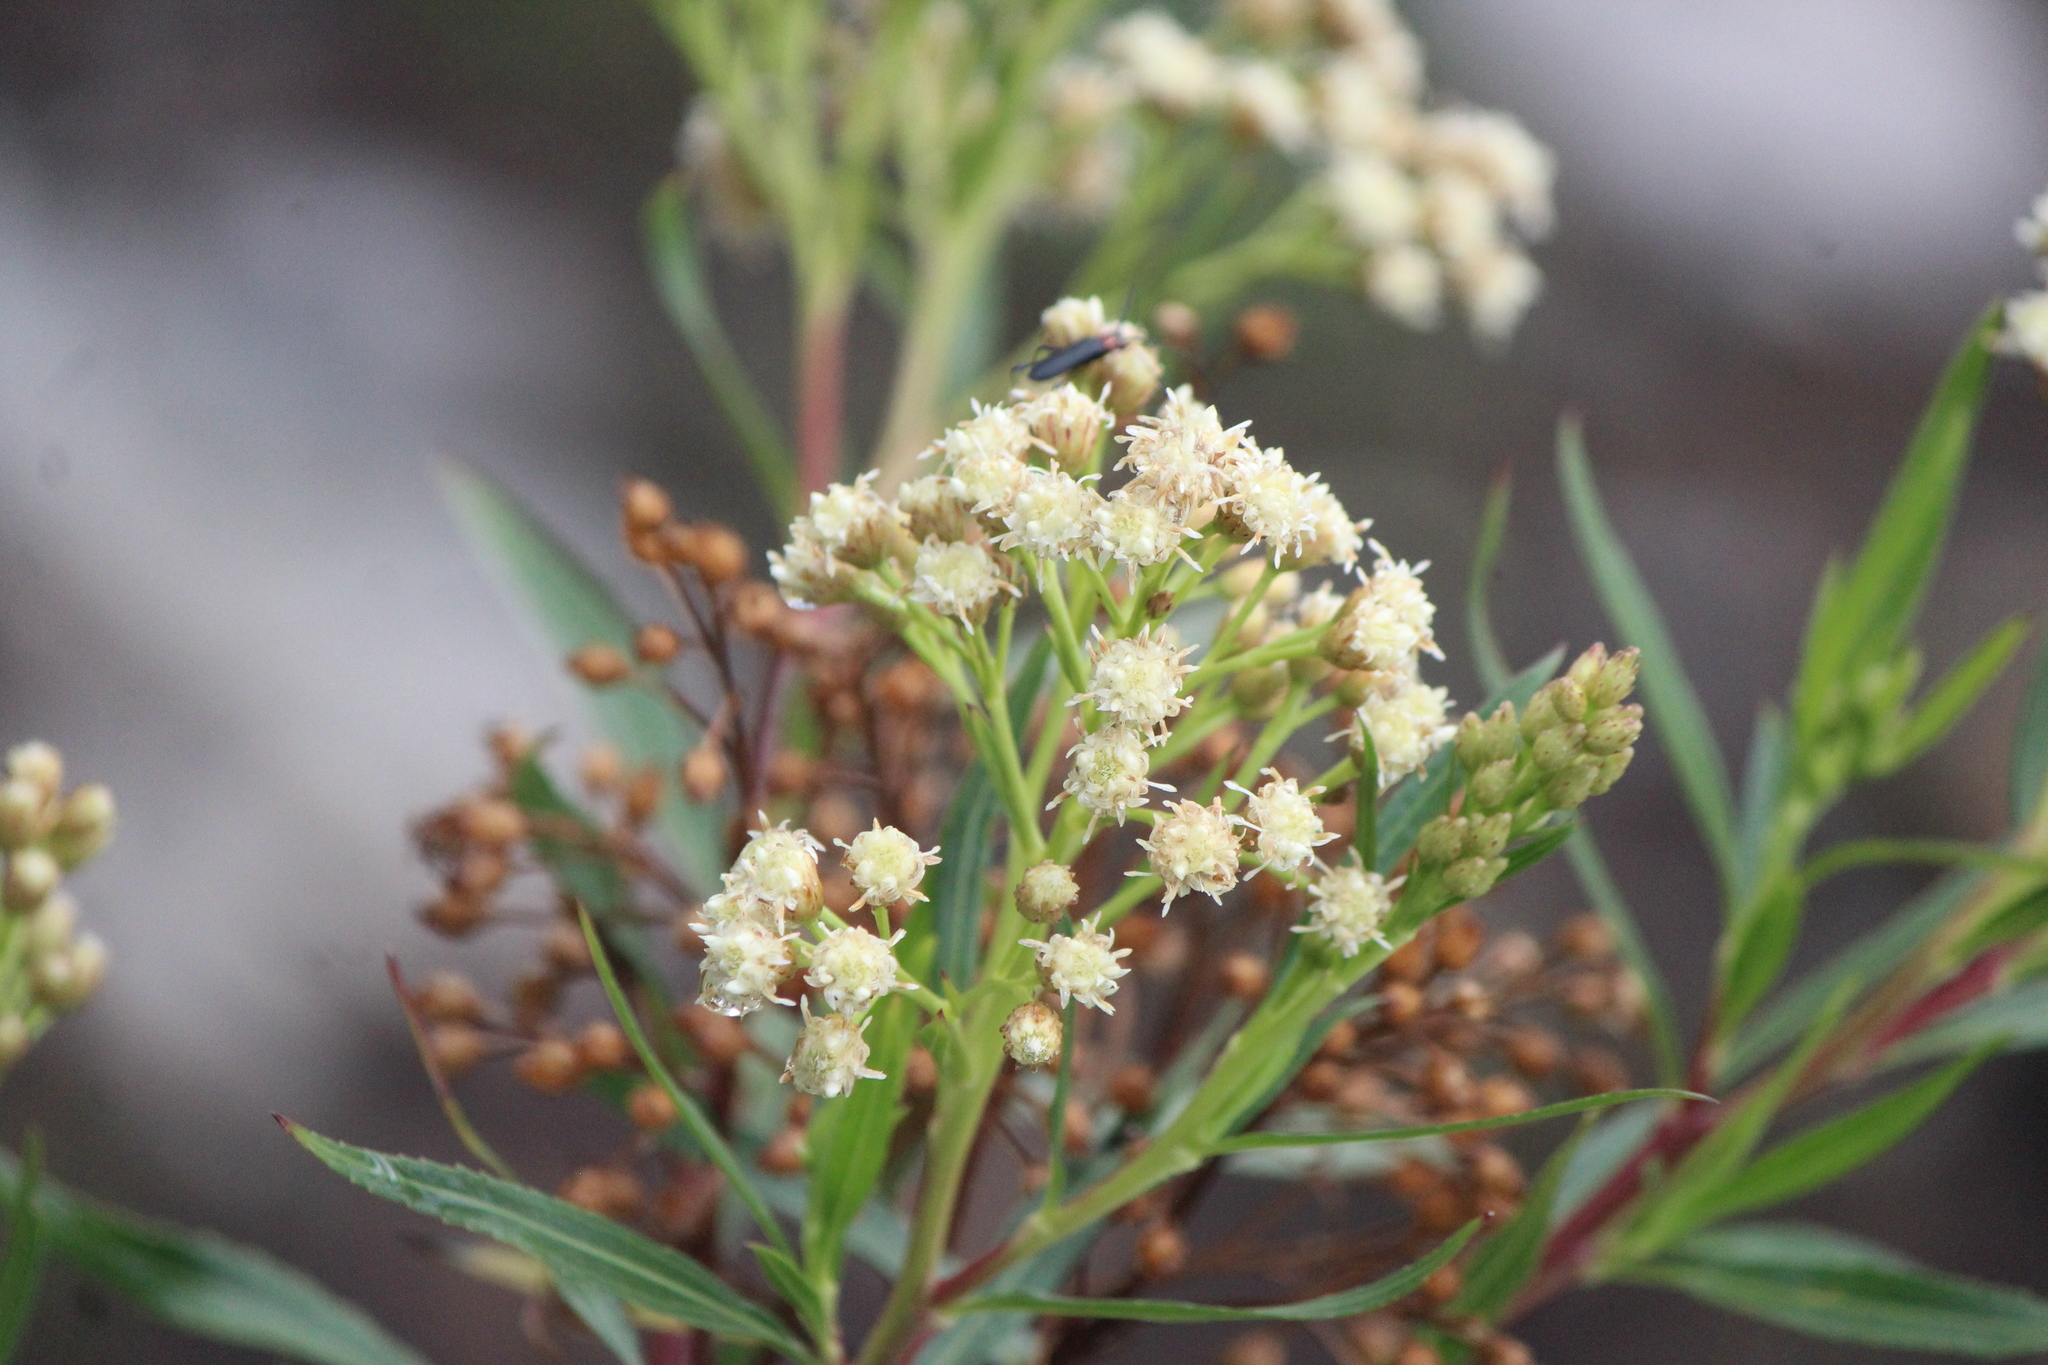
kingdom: Plantae
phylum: Tracheophyta
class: Magnoliopsida
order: Asterales
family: Asteraceae
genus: Baccharis
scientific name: Baccharis salicifolia
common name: Sticky baccharis
